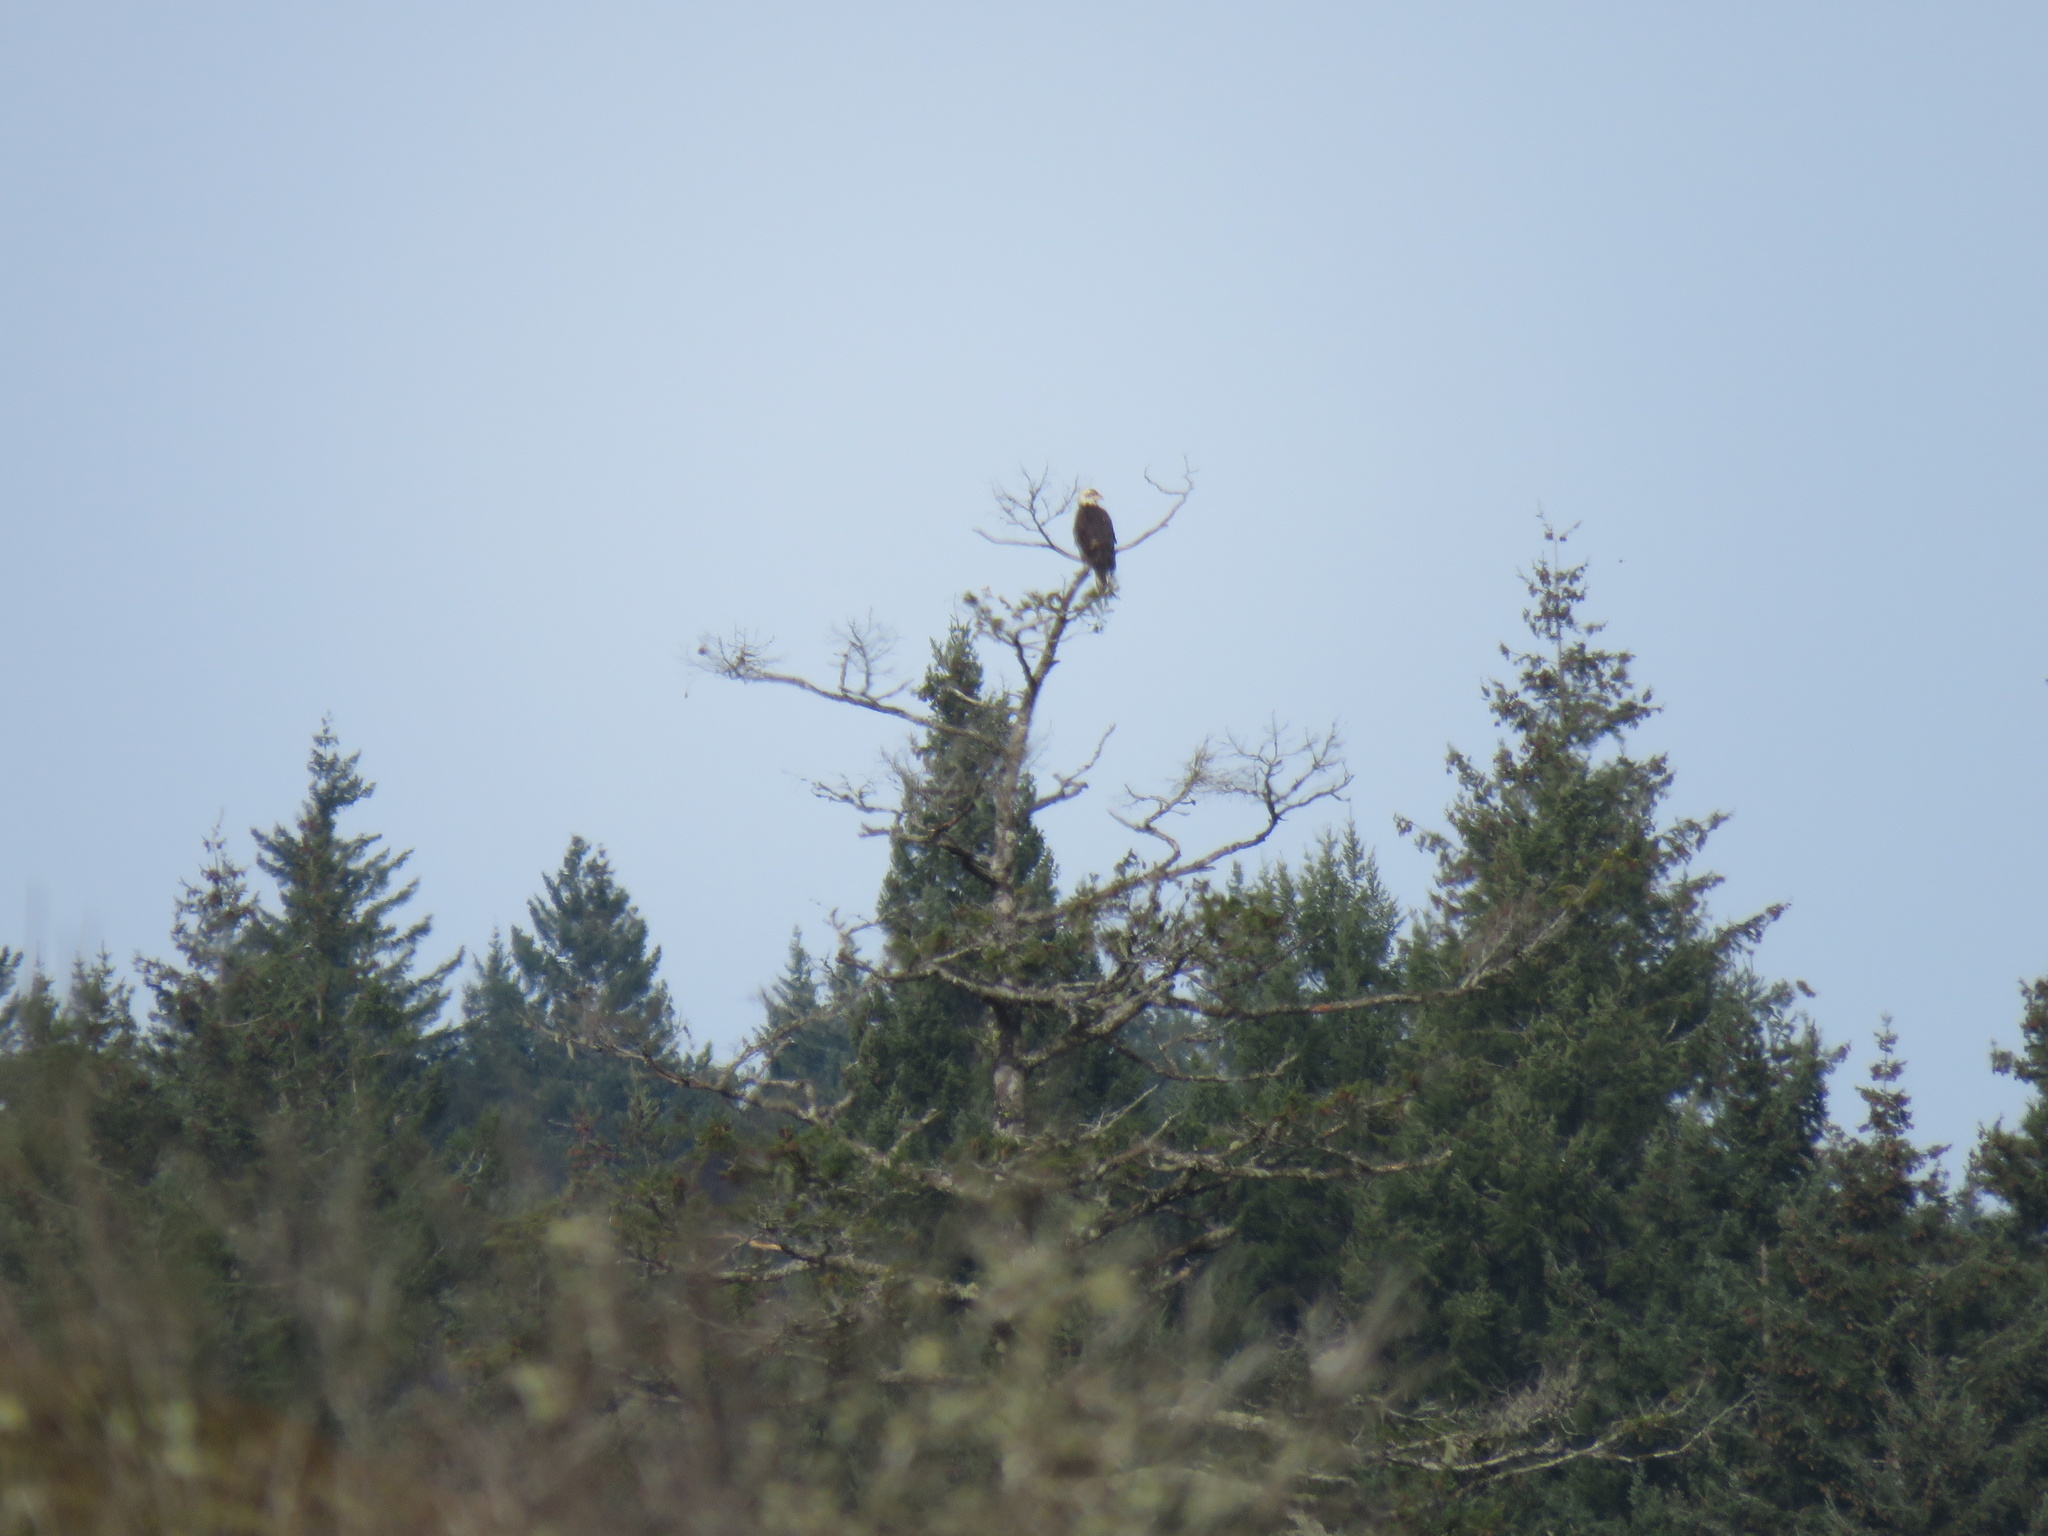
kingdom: Animalia
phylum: Chordata
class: Aves
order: Accipitriformes
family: Accipitridae
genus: Haliaeetus
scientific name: Haliaeetus leucocephalus
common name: Bald eagle
